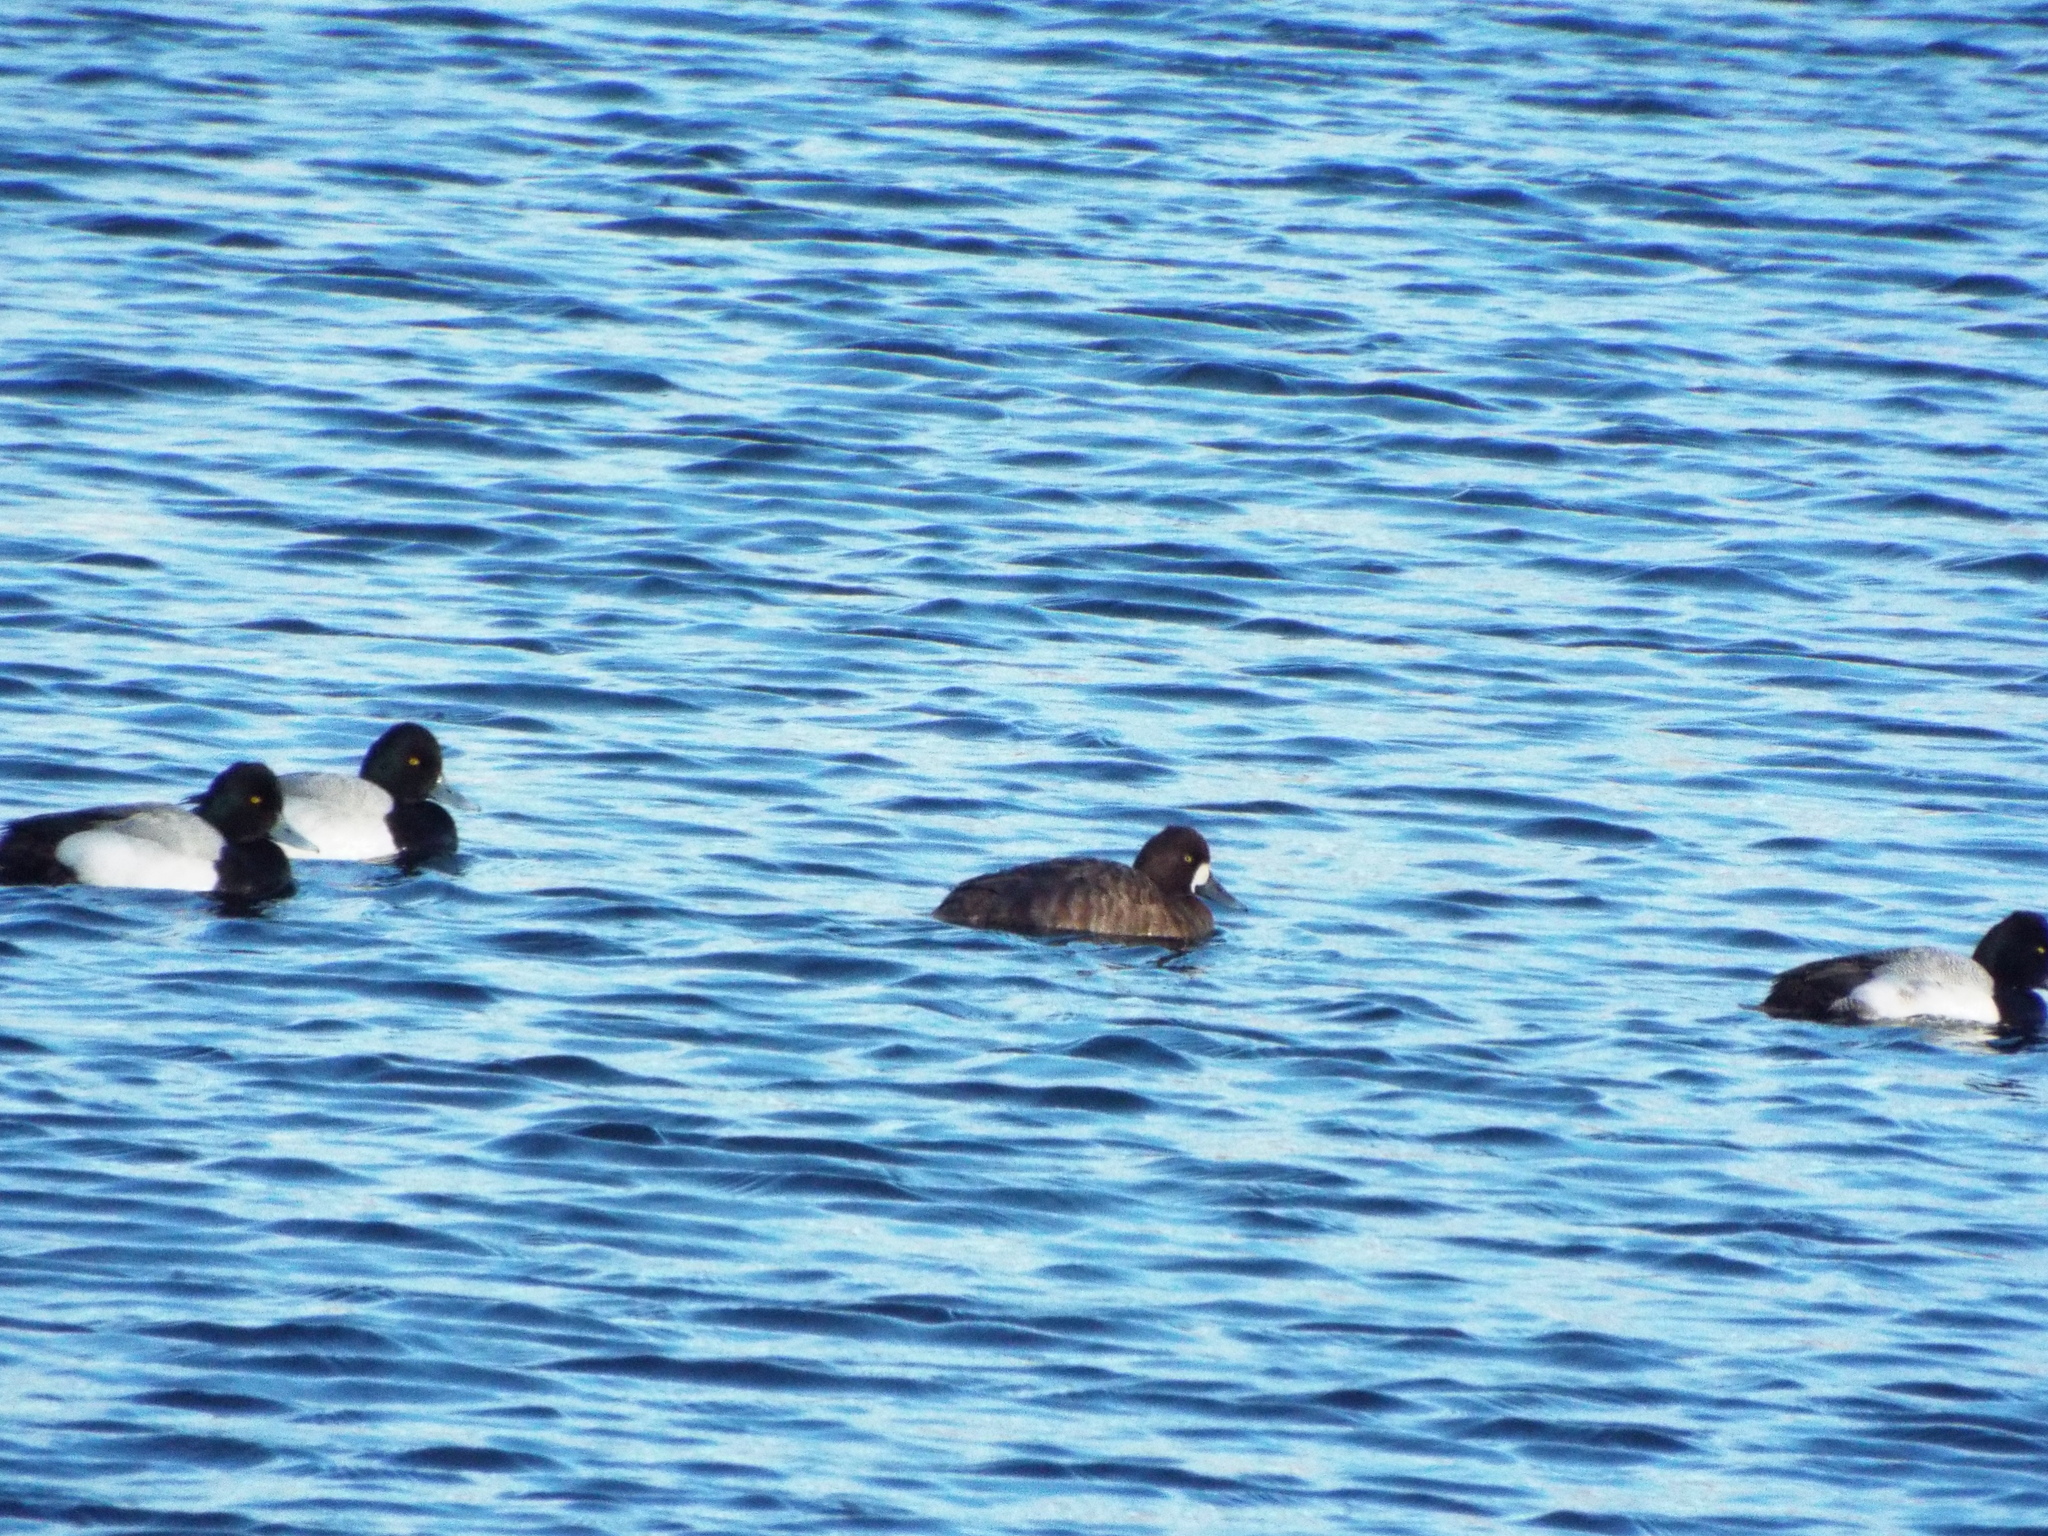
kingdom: Animalia
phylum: Chordata
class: Aves
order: Anseriformes
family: Anatidae
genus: Aythya
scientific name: Aythya affinis
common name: Lesser scaup
